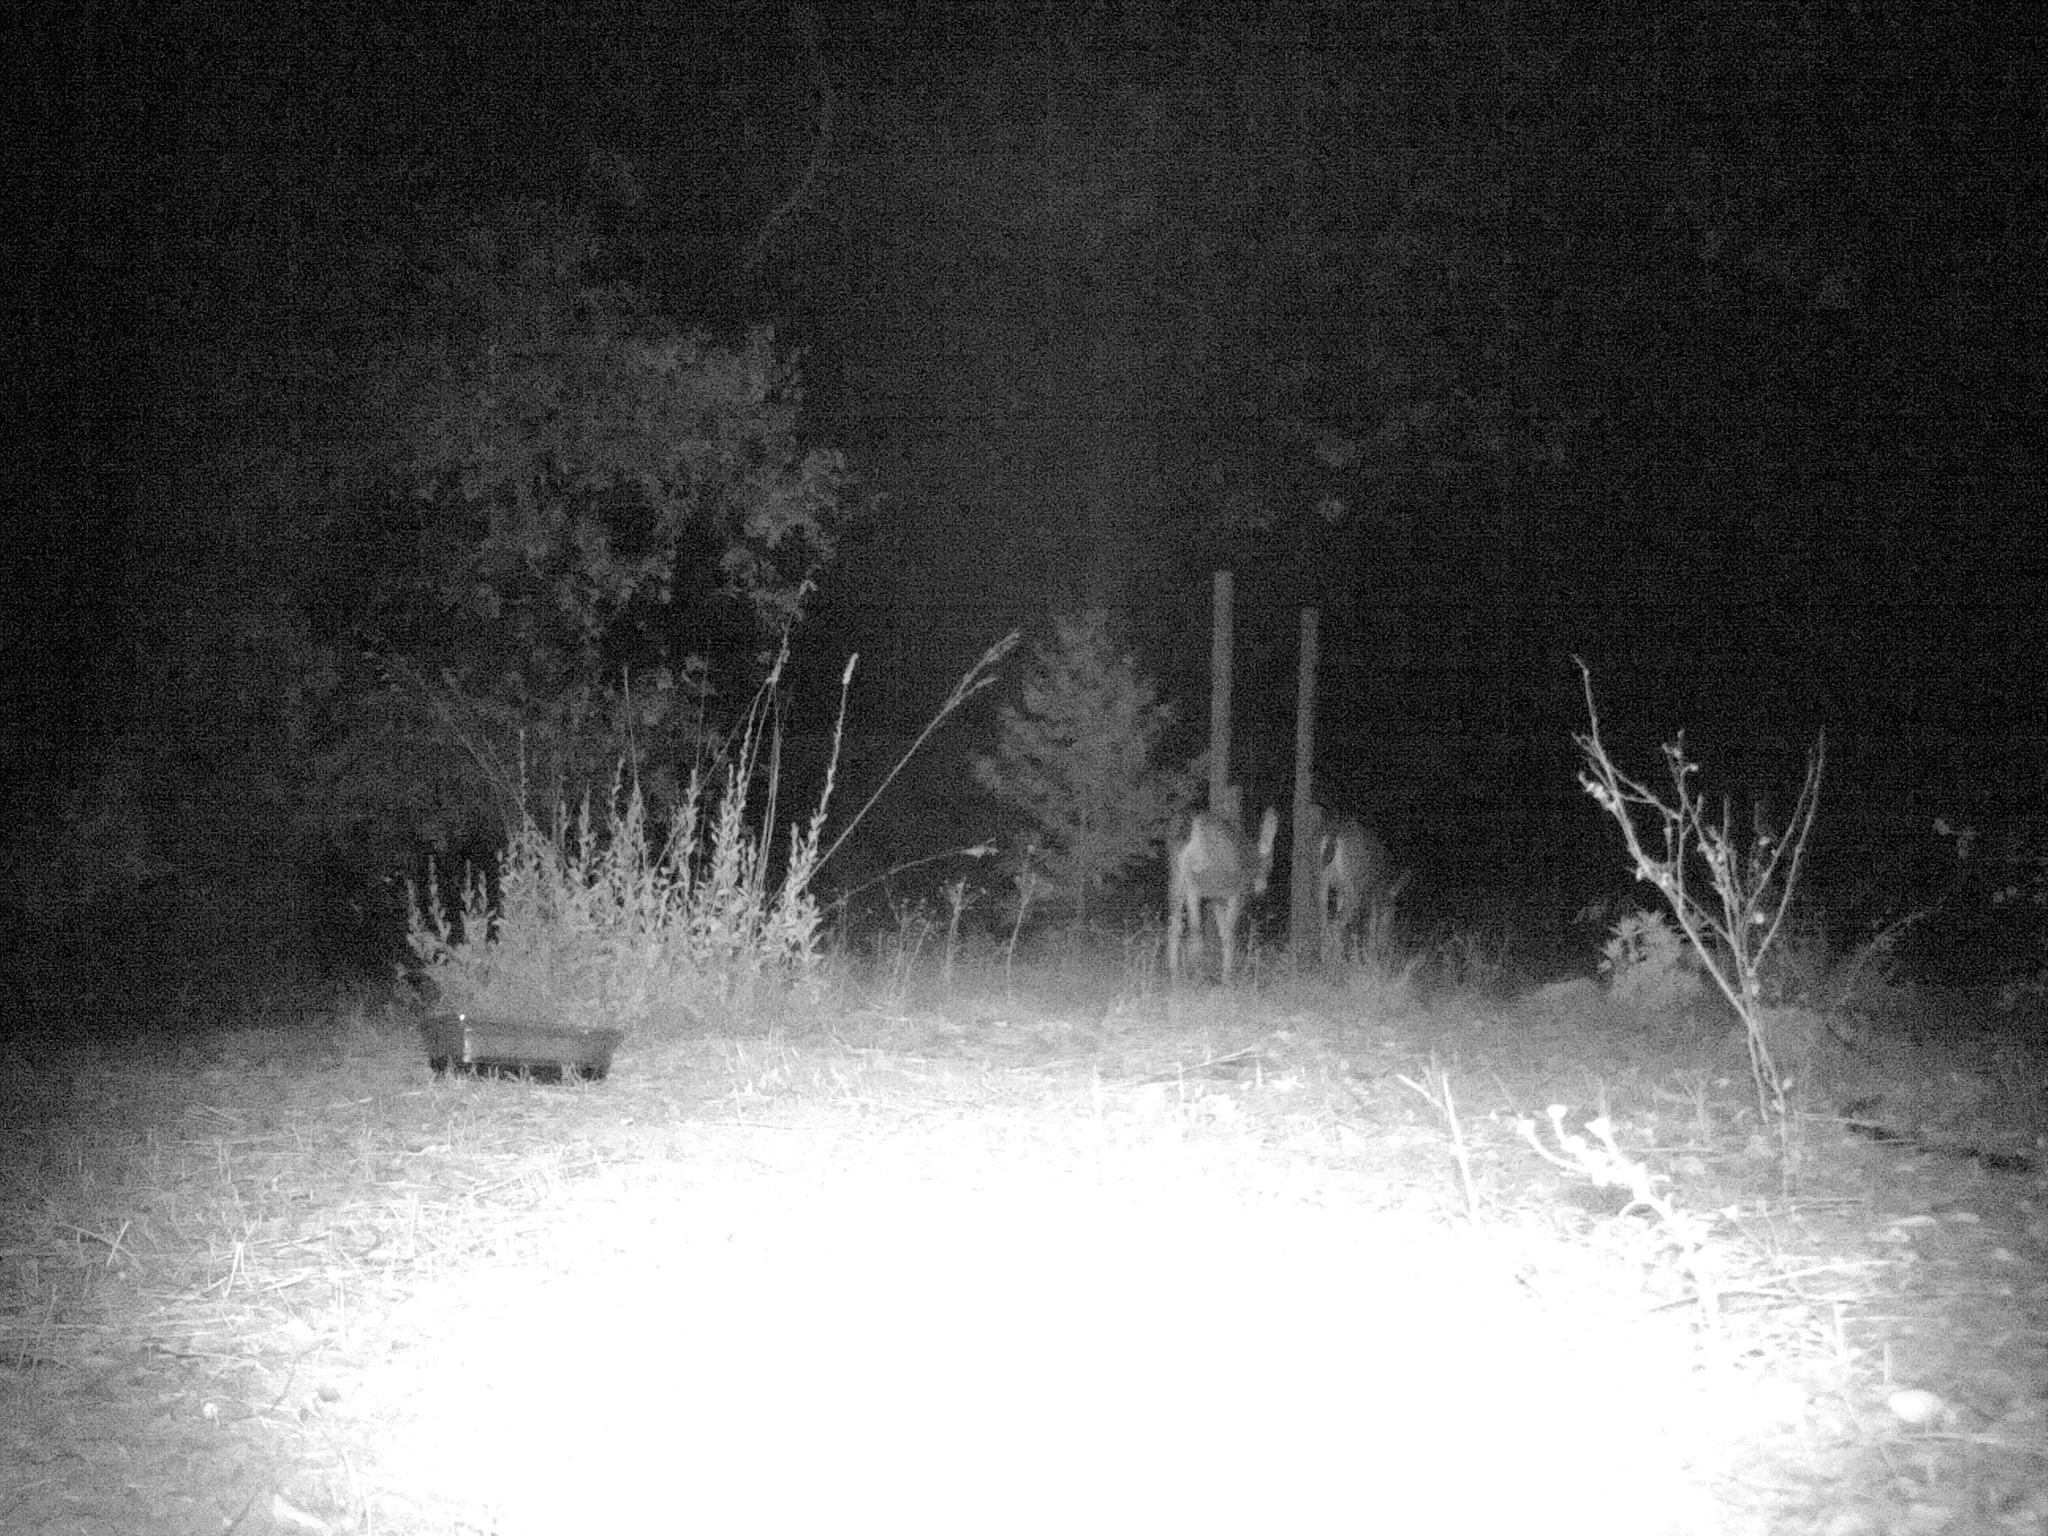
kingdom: Animalia
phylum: Chordata
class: Mammalia
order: Artiodactyla
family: Cervidae
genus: Odocoileus
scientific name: Odocoileus hemionus
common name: Mule deer
